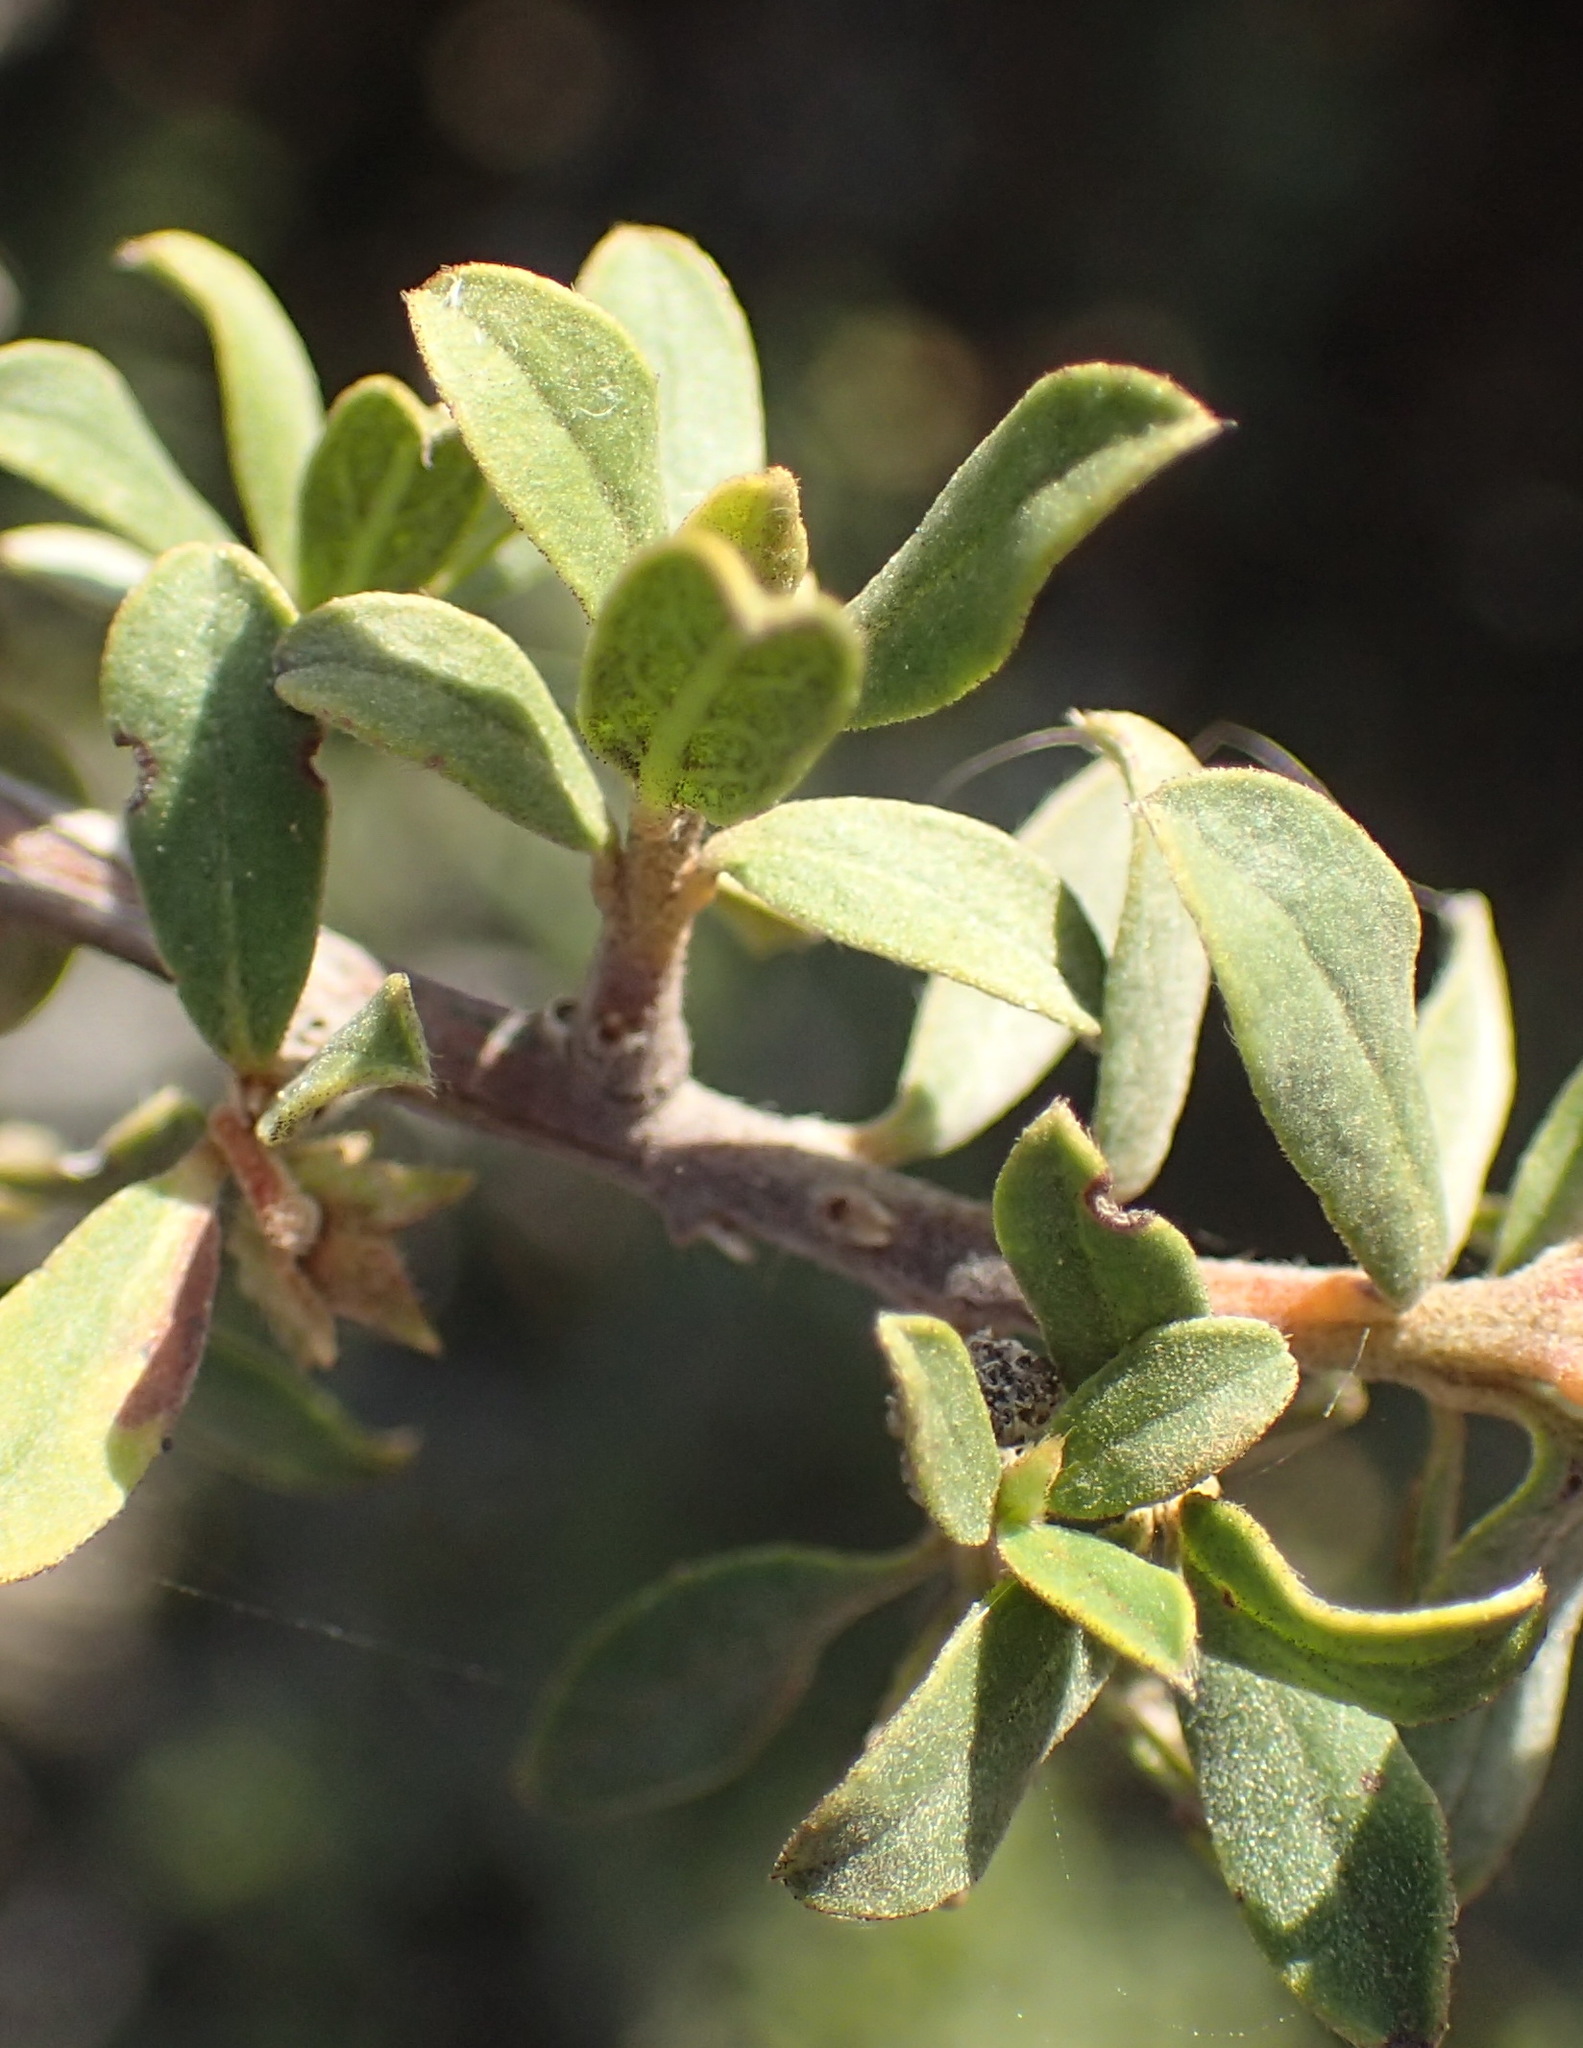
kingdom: Plantae
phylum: Tracheophyta
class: Magnoliopsida
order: Ericales
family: Ebenaceae
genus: Diospyros
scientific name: Diospyros pubescens
